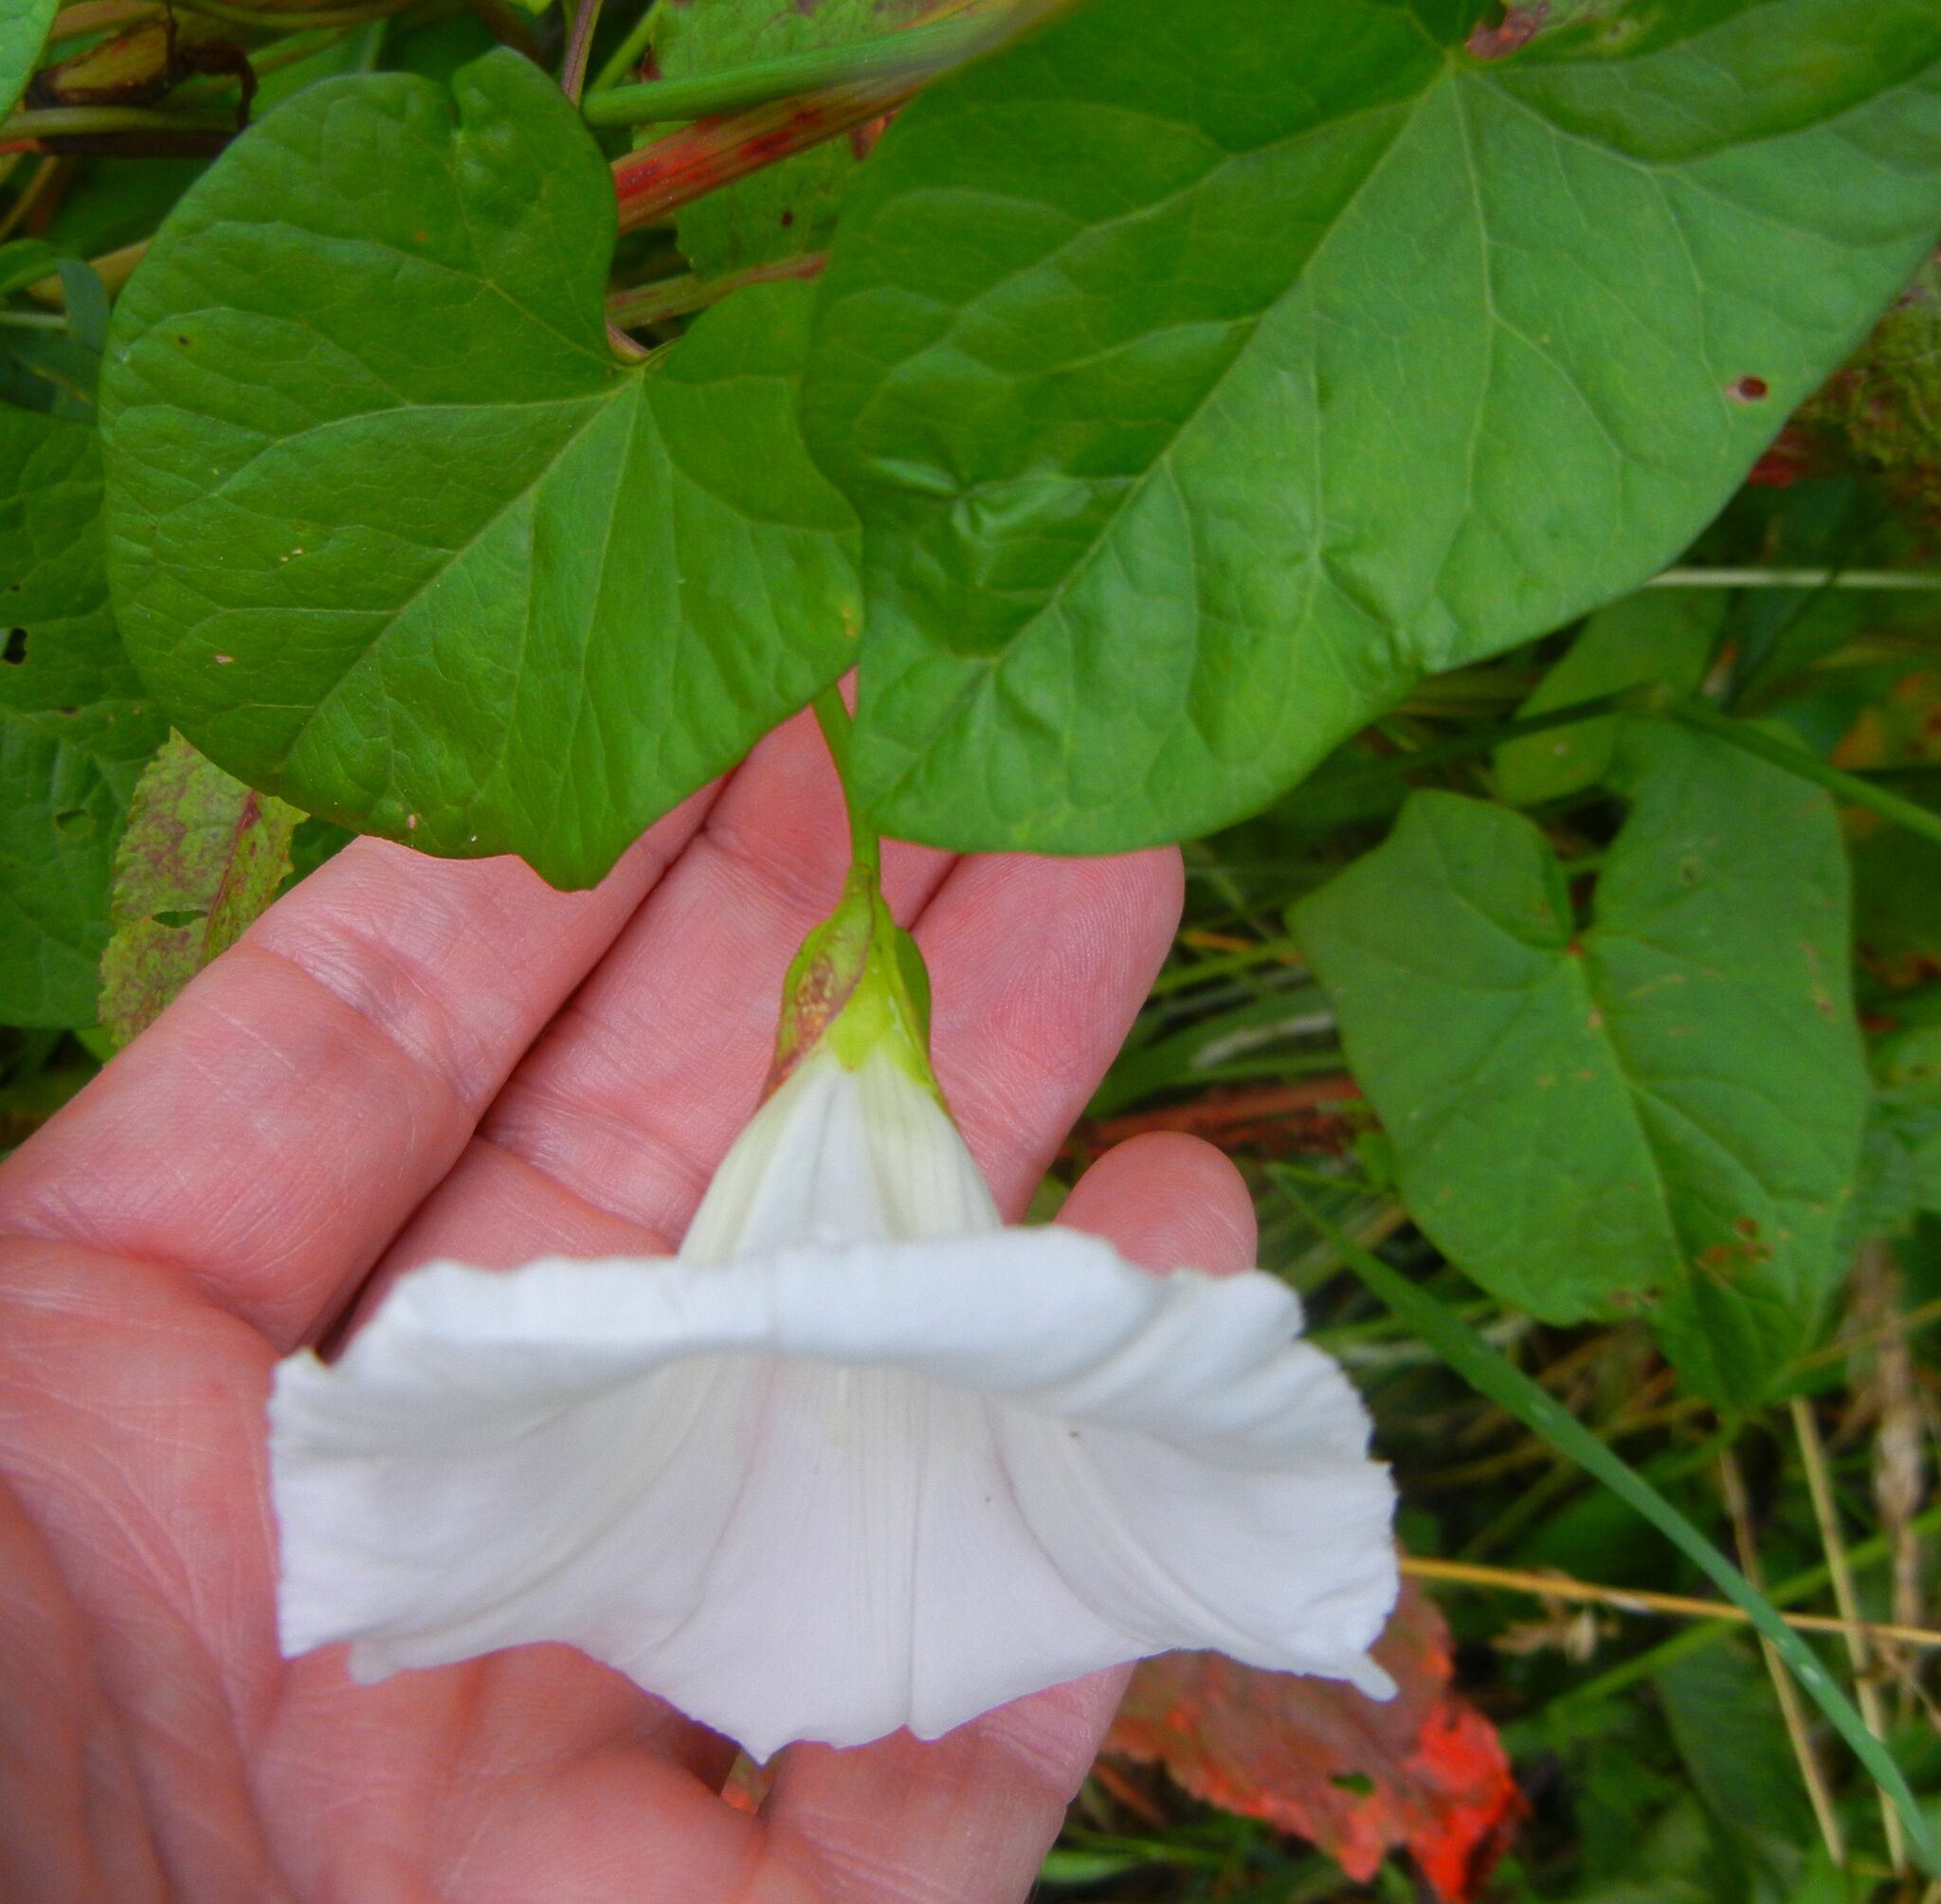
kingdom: Plantae
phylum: Tracheophyta
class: Magnoliopsida
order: Solanales
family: Convolvulaceae
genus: Calystegia
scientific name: Calystegia sepium
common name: Hedge bindweed
